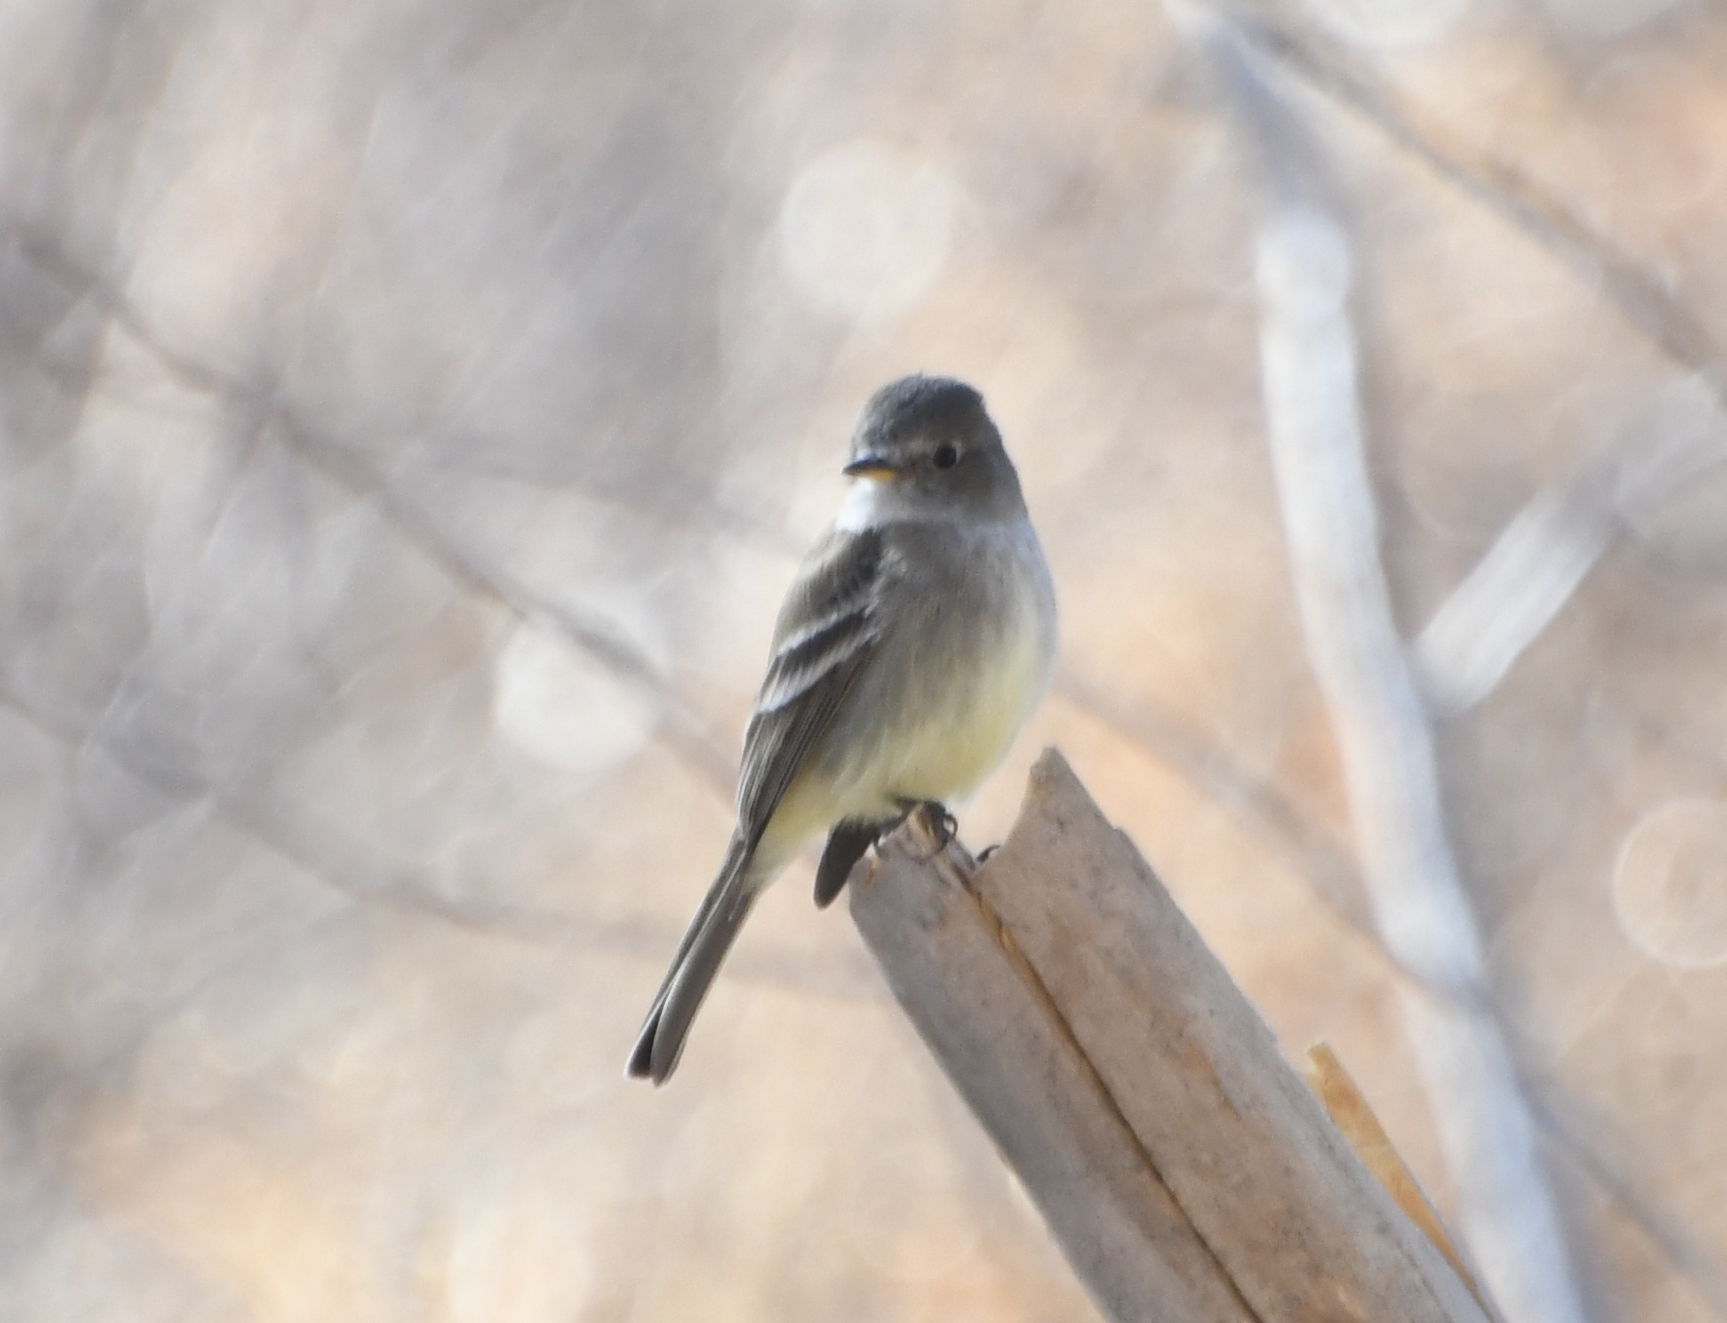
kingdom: Animalia
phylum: Chordata
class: Aves
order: Passeriformes
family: Tyrannidae
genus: Empidonax
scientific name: Empidonax wrightii
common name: Gray flycatcher
